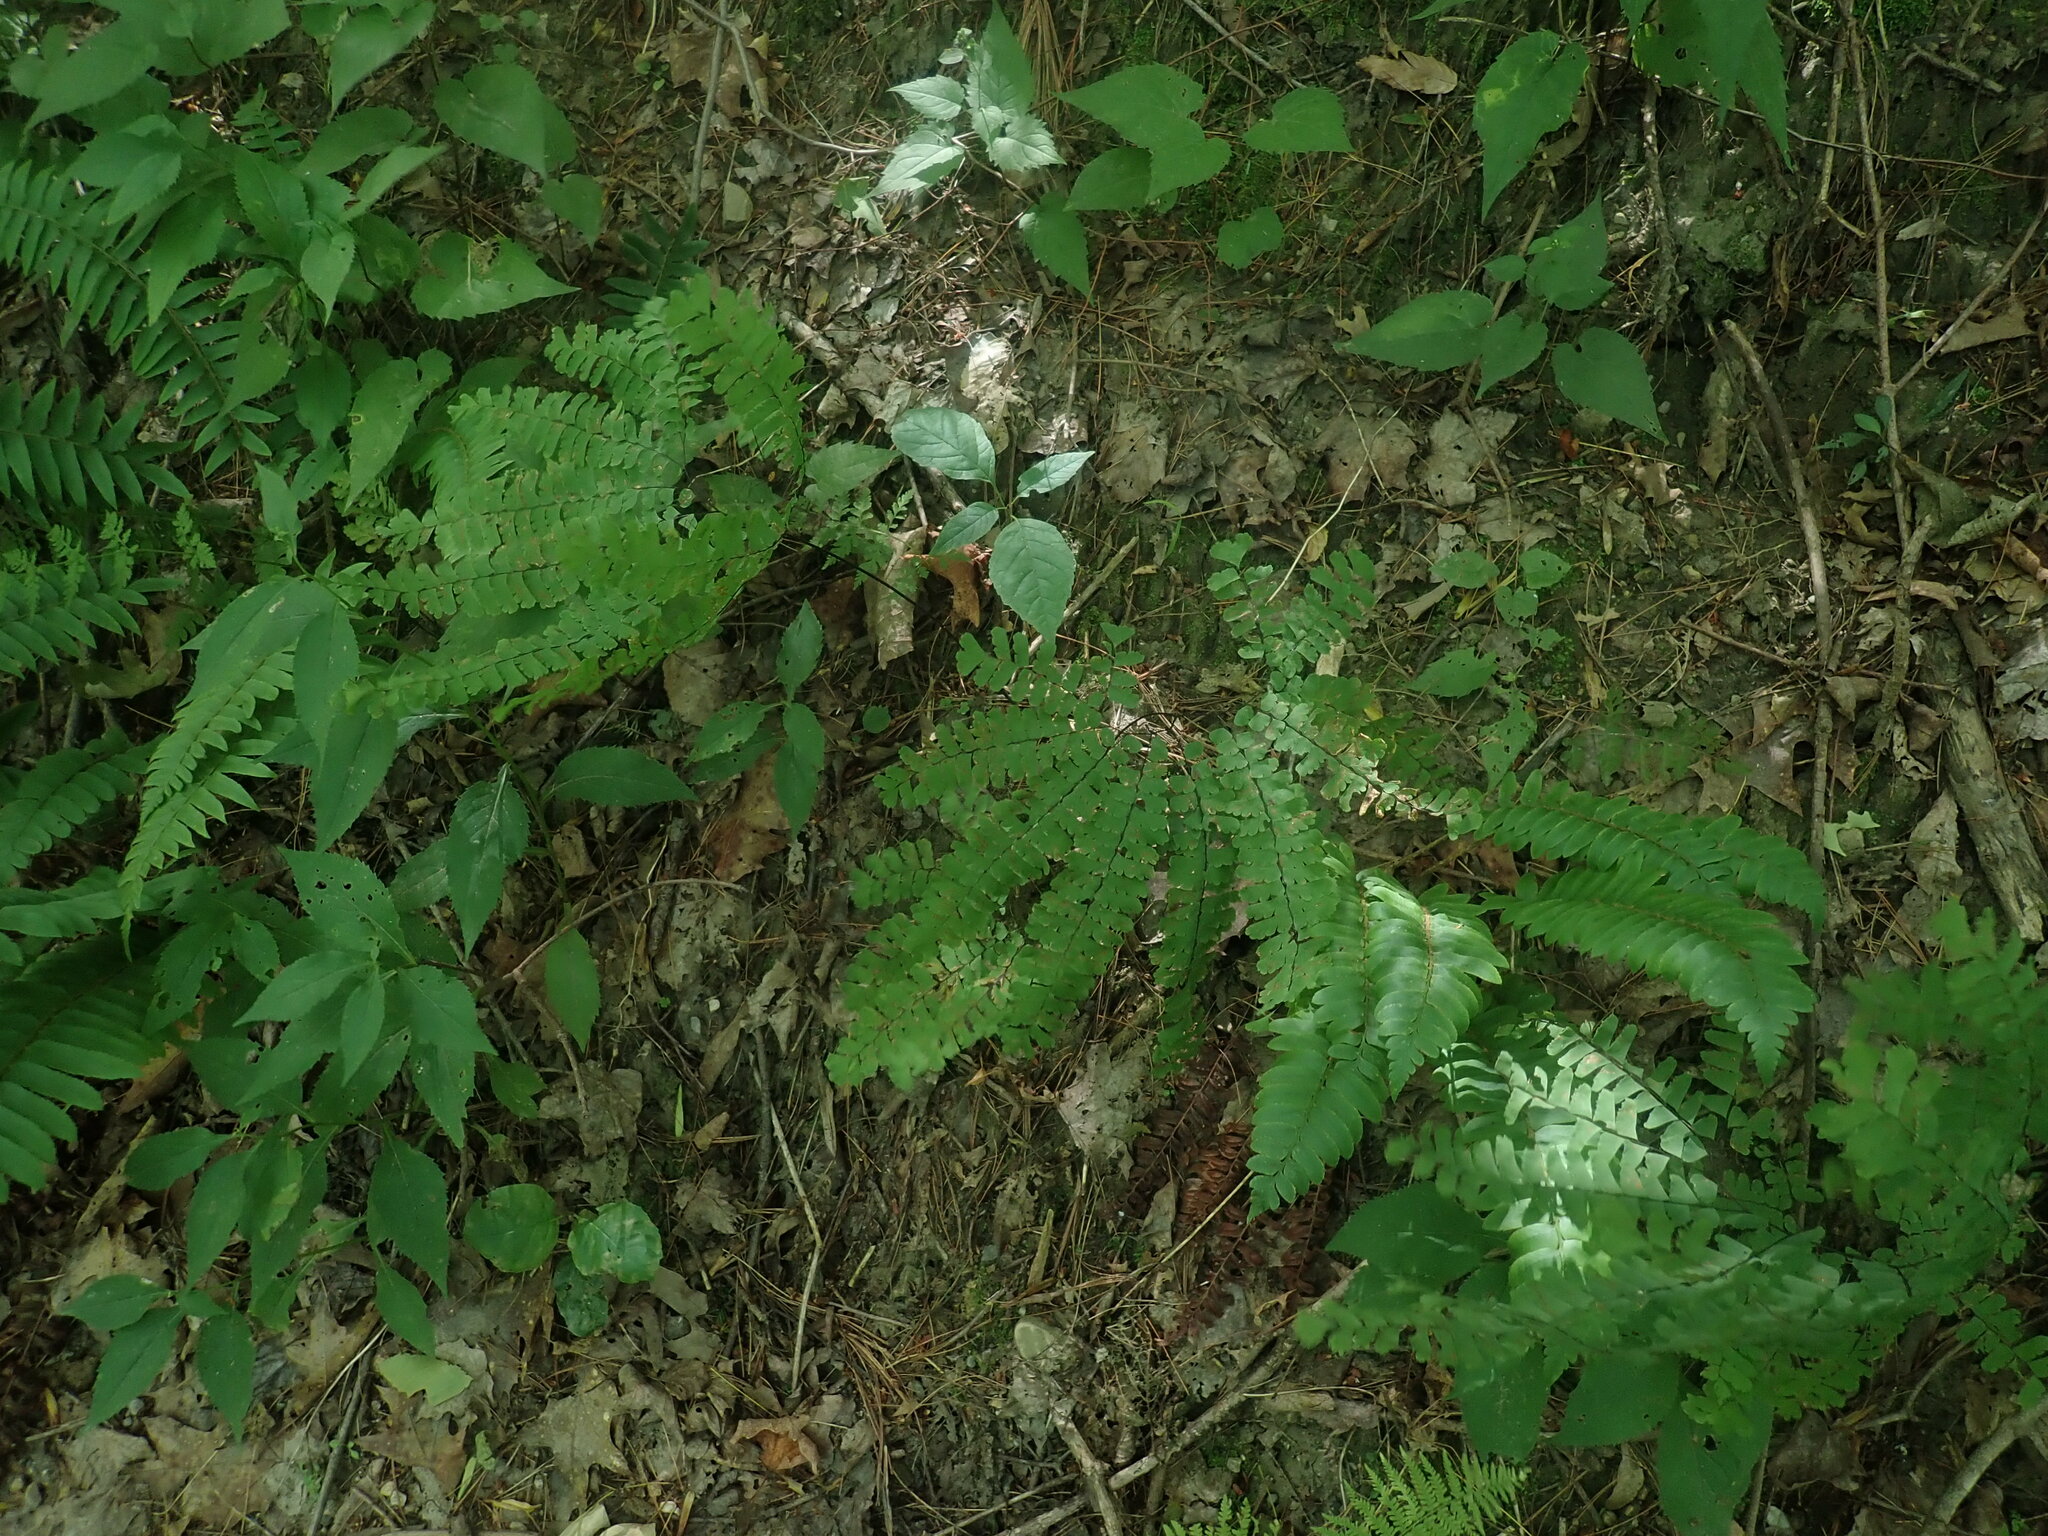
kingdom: Plantae
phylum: Tracheophyta
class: Polypodiopsida
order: Polypodiales
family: Pteridaceae
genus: Adiantum
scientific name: Adiantum pedatum
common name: Five-finger fern
